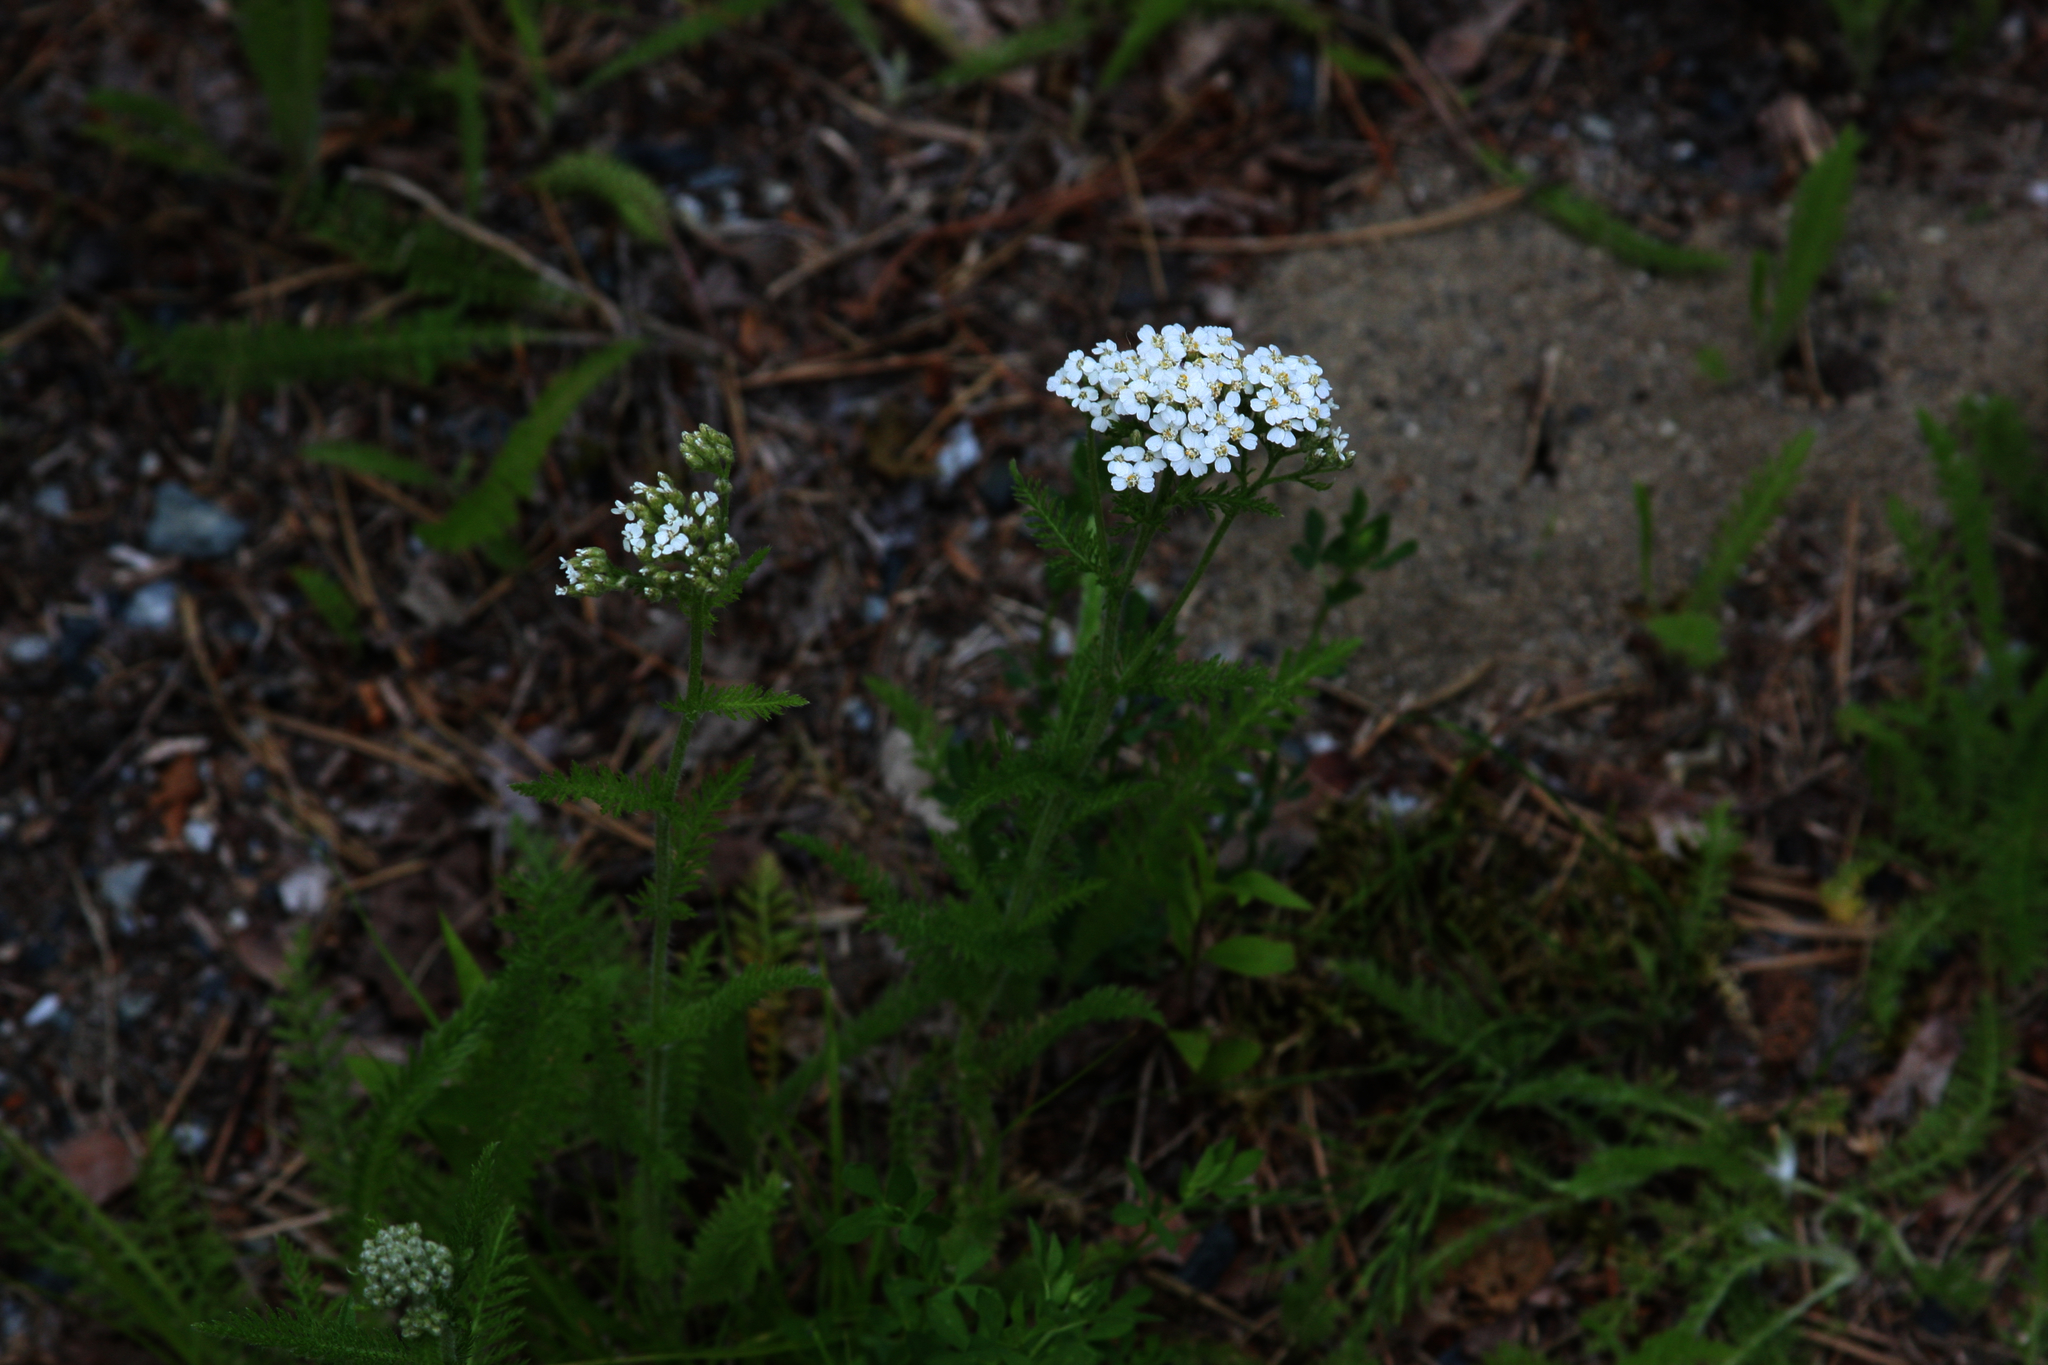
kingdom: Plantae
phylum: Tracheophyta
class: Magnoliopsida
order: Asterales
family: Asteraceae
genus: Achillea
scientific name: Achillea millefolium
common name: Yarrow
